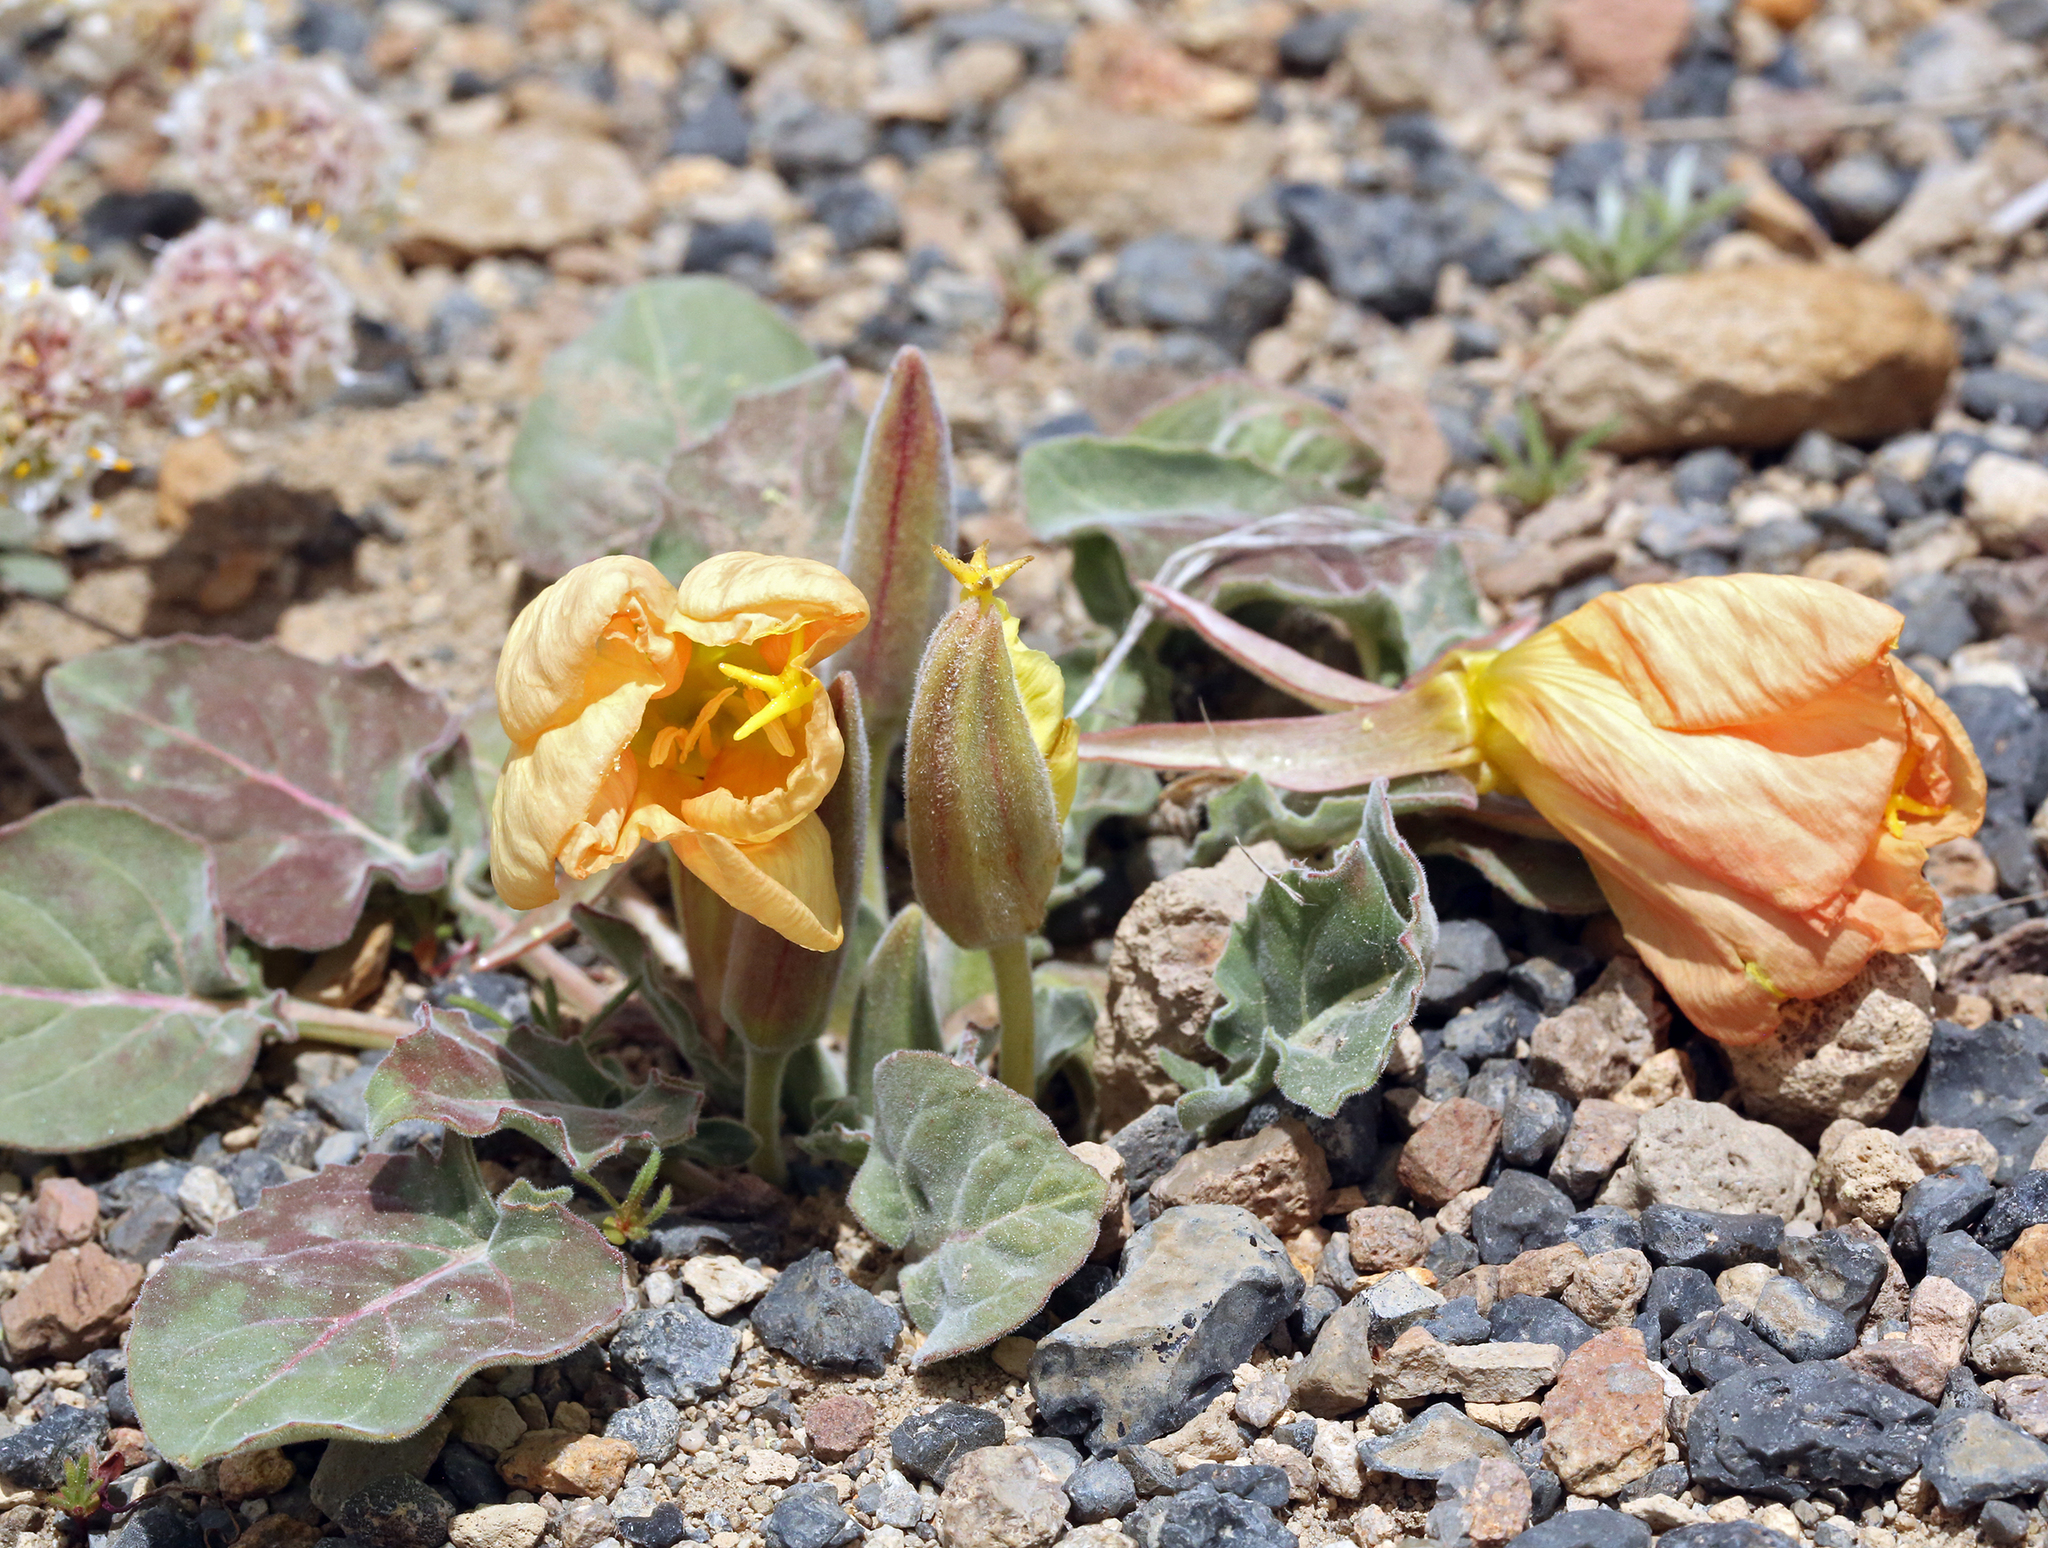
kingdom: Plantae
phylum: Tracheophyta
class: Magnoliopsida
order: Myrtales
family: Onagraceae
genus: Oenothera
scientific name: Oenothera xylocarpa
